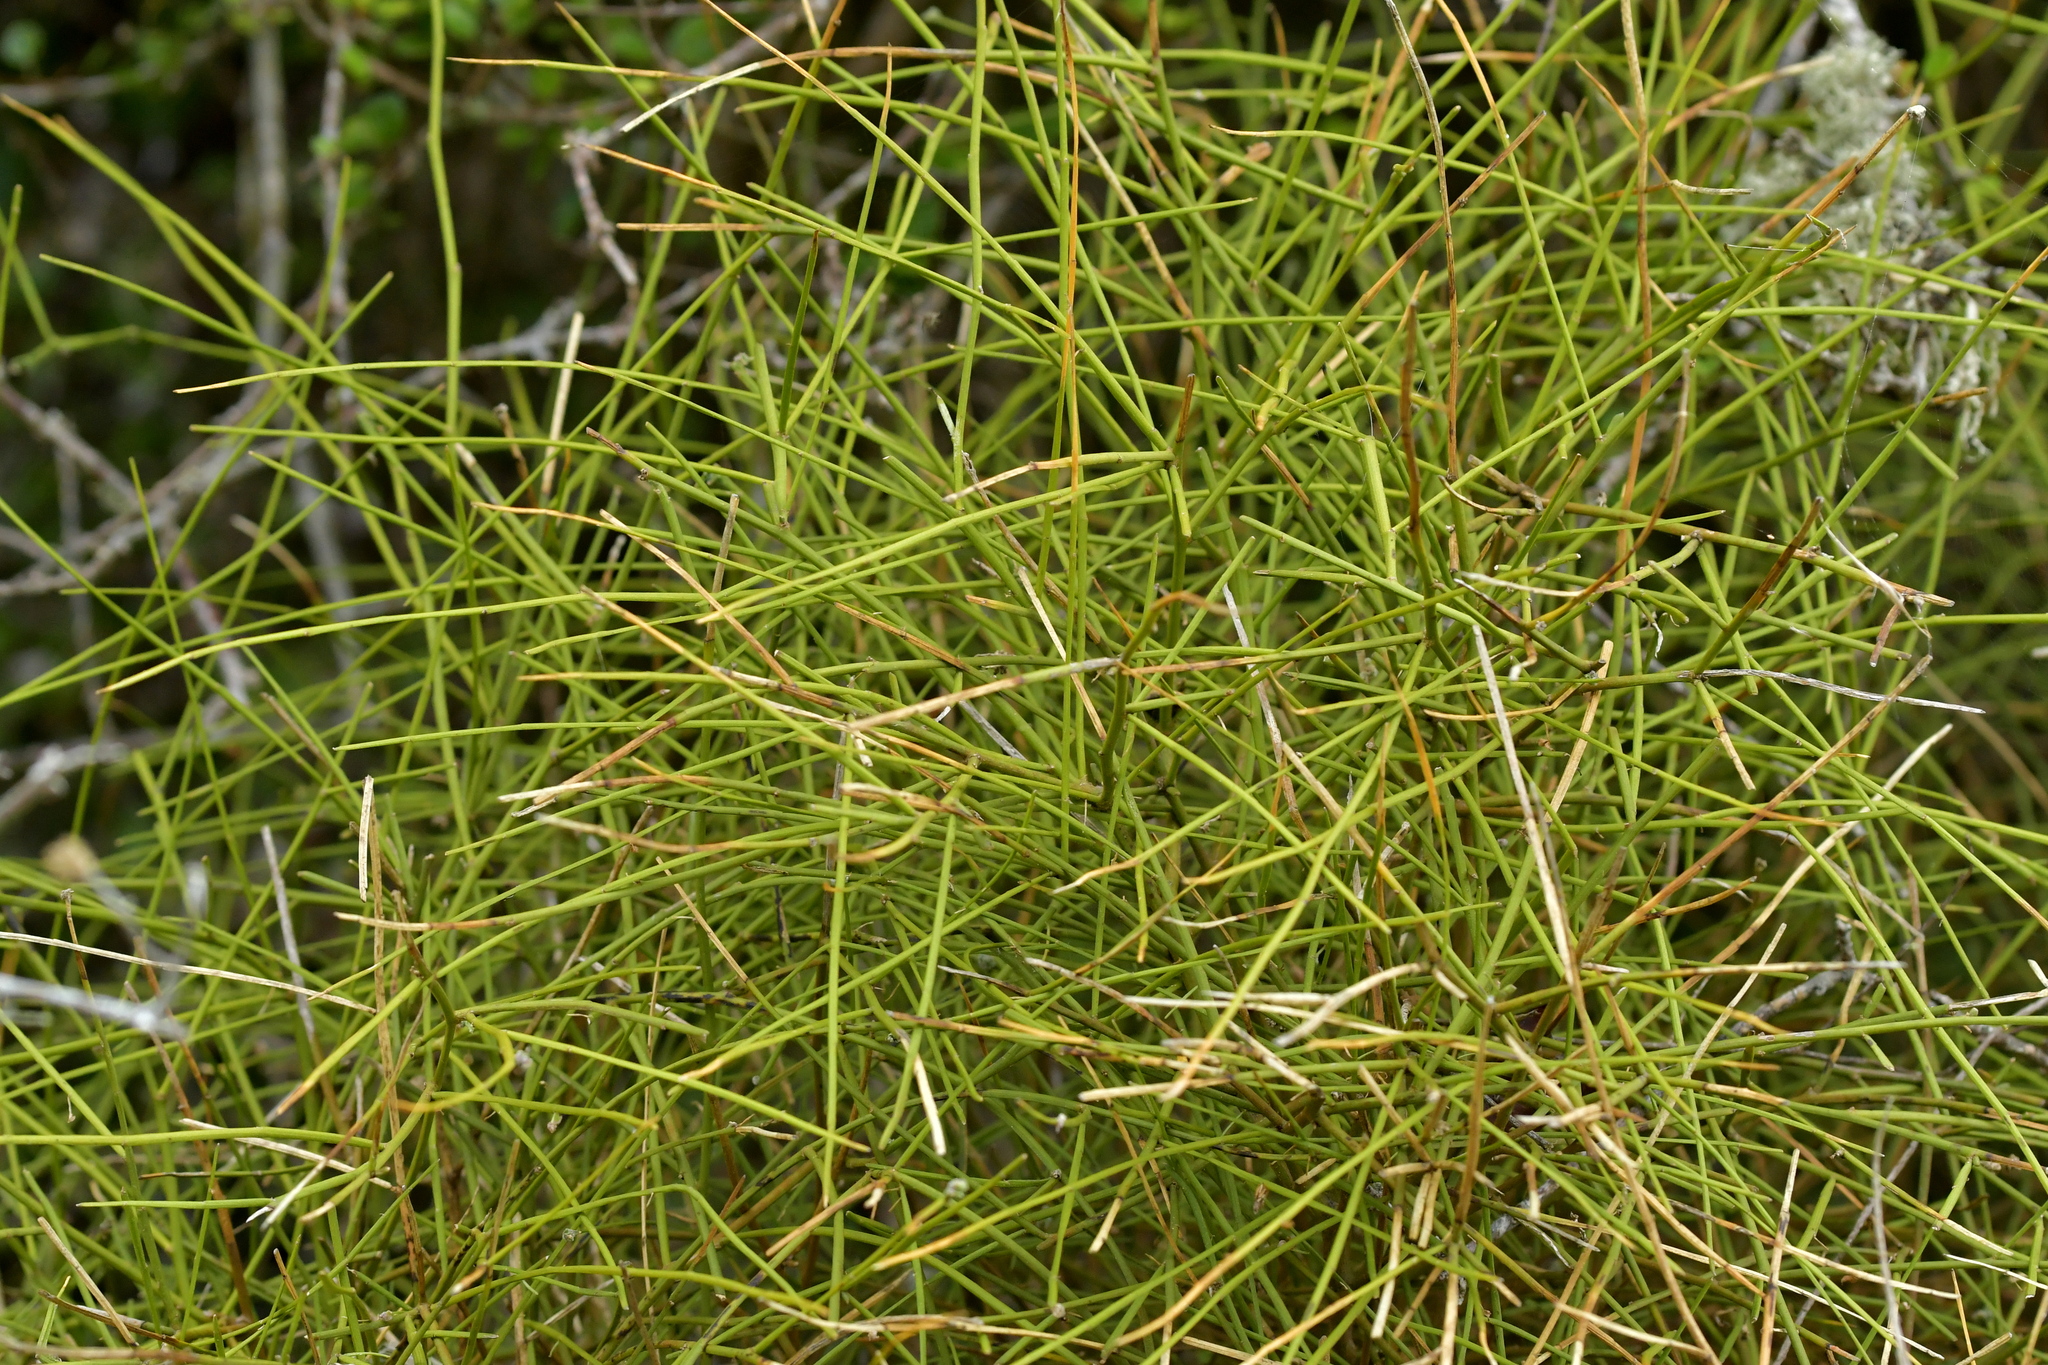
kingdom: Plantae
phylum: Tracheophyta
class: Magnoliopsida
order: Fabales
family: Fabaceae
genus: Carmichaelia
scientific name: Carmichaelia petriei
